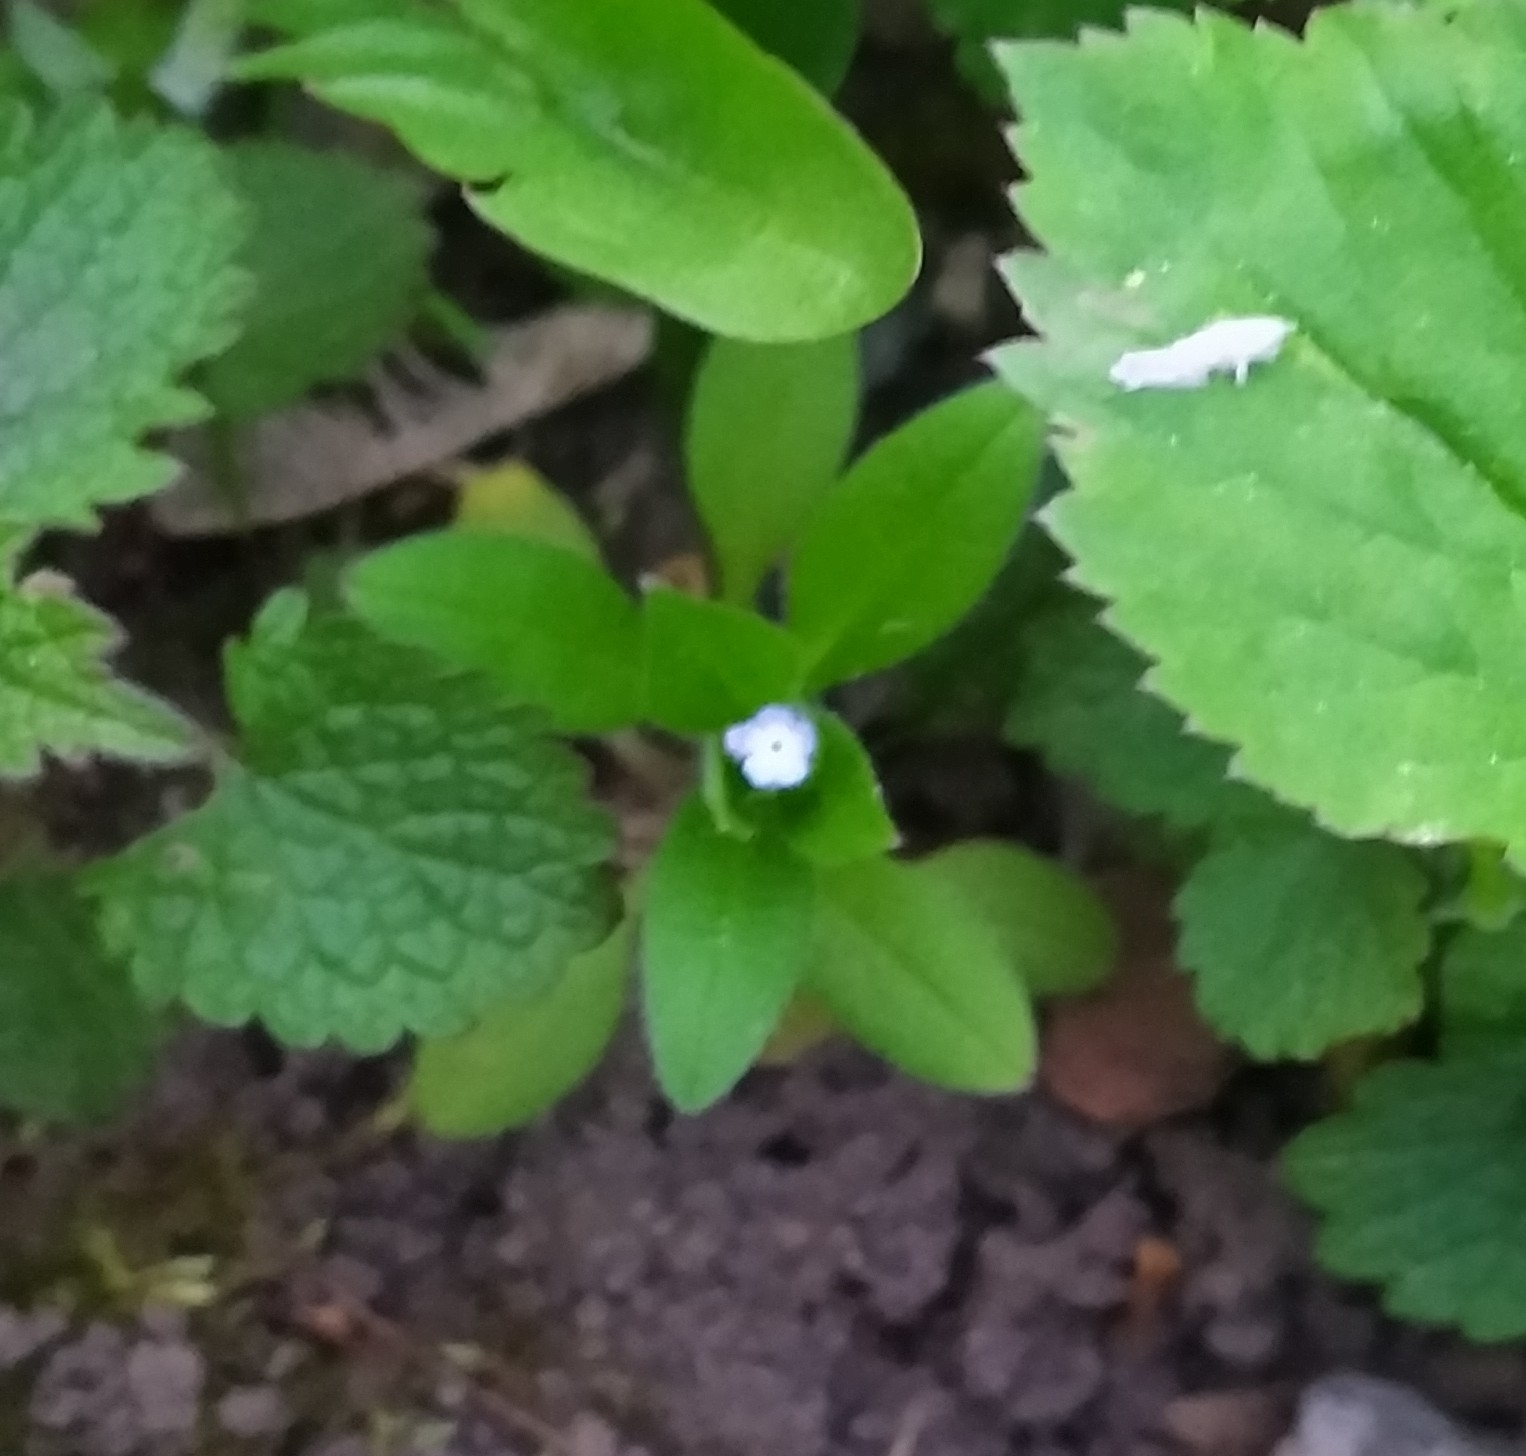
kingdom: Plantae
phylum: Tracheophyta
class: Magnoliopsida
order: Boraginales
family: Boraginaceae
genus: Myosotis
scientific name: Myosotis sparsiflora
